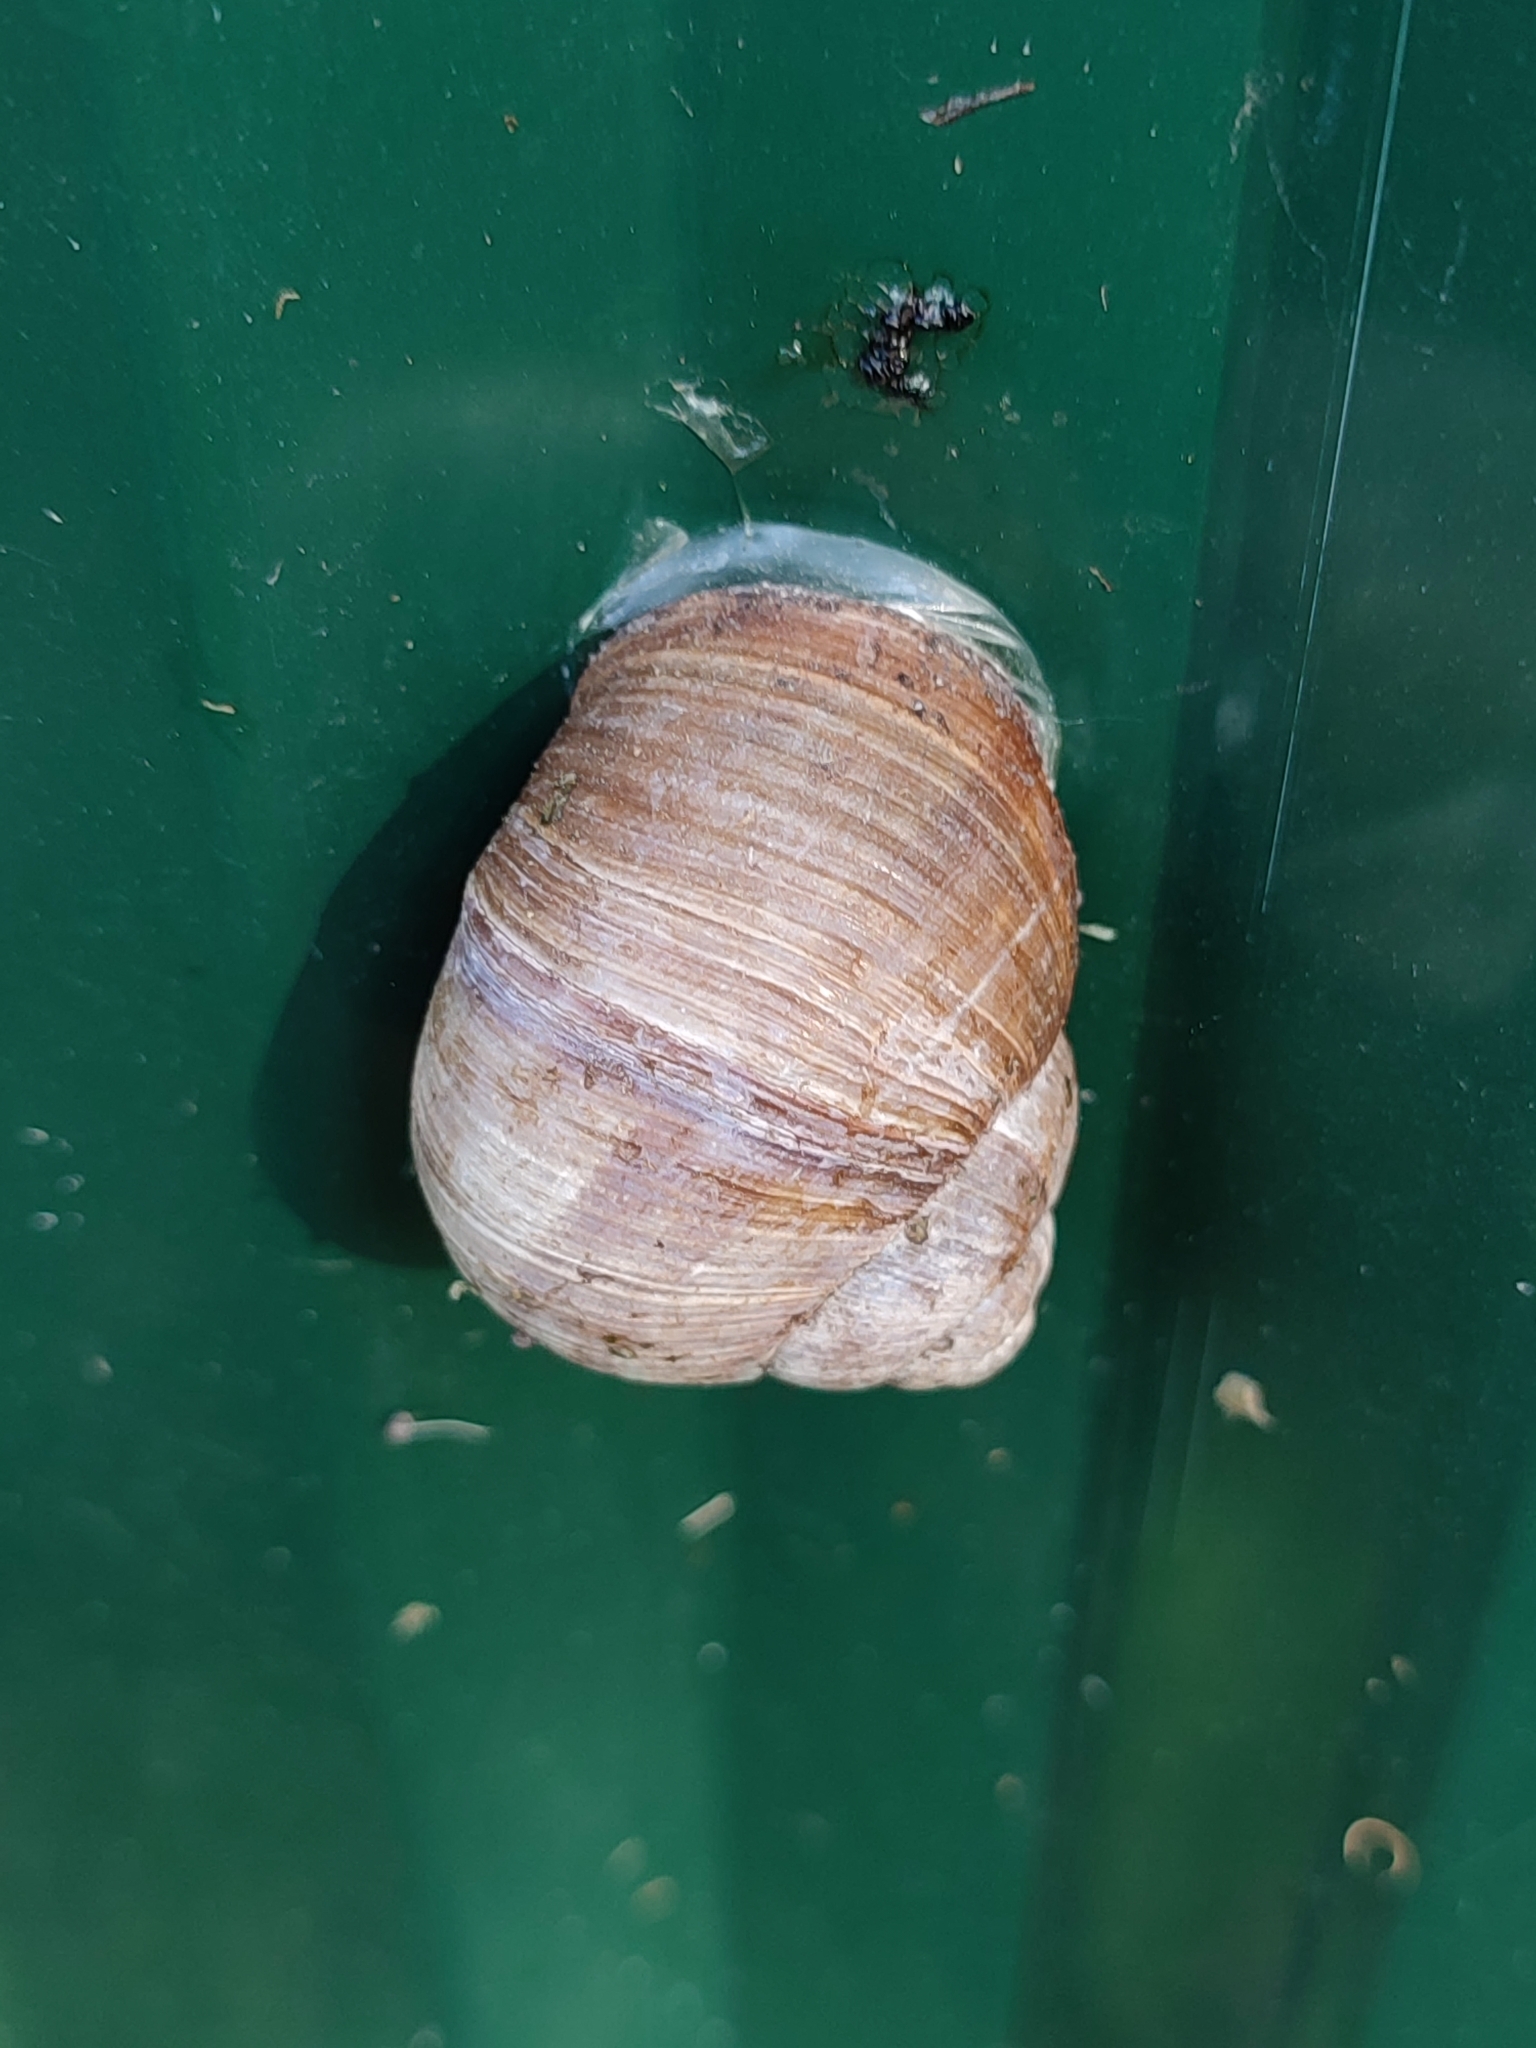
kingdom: Animalia
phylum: Mollusca
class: Gastropoda
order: Stylommatophora
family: Helicidae
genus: Helix
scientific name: Helix pomatia
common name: Roman snail
